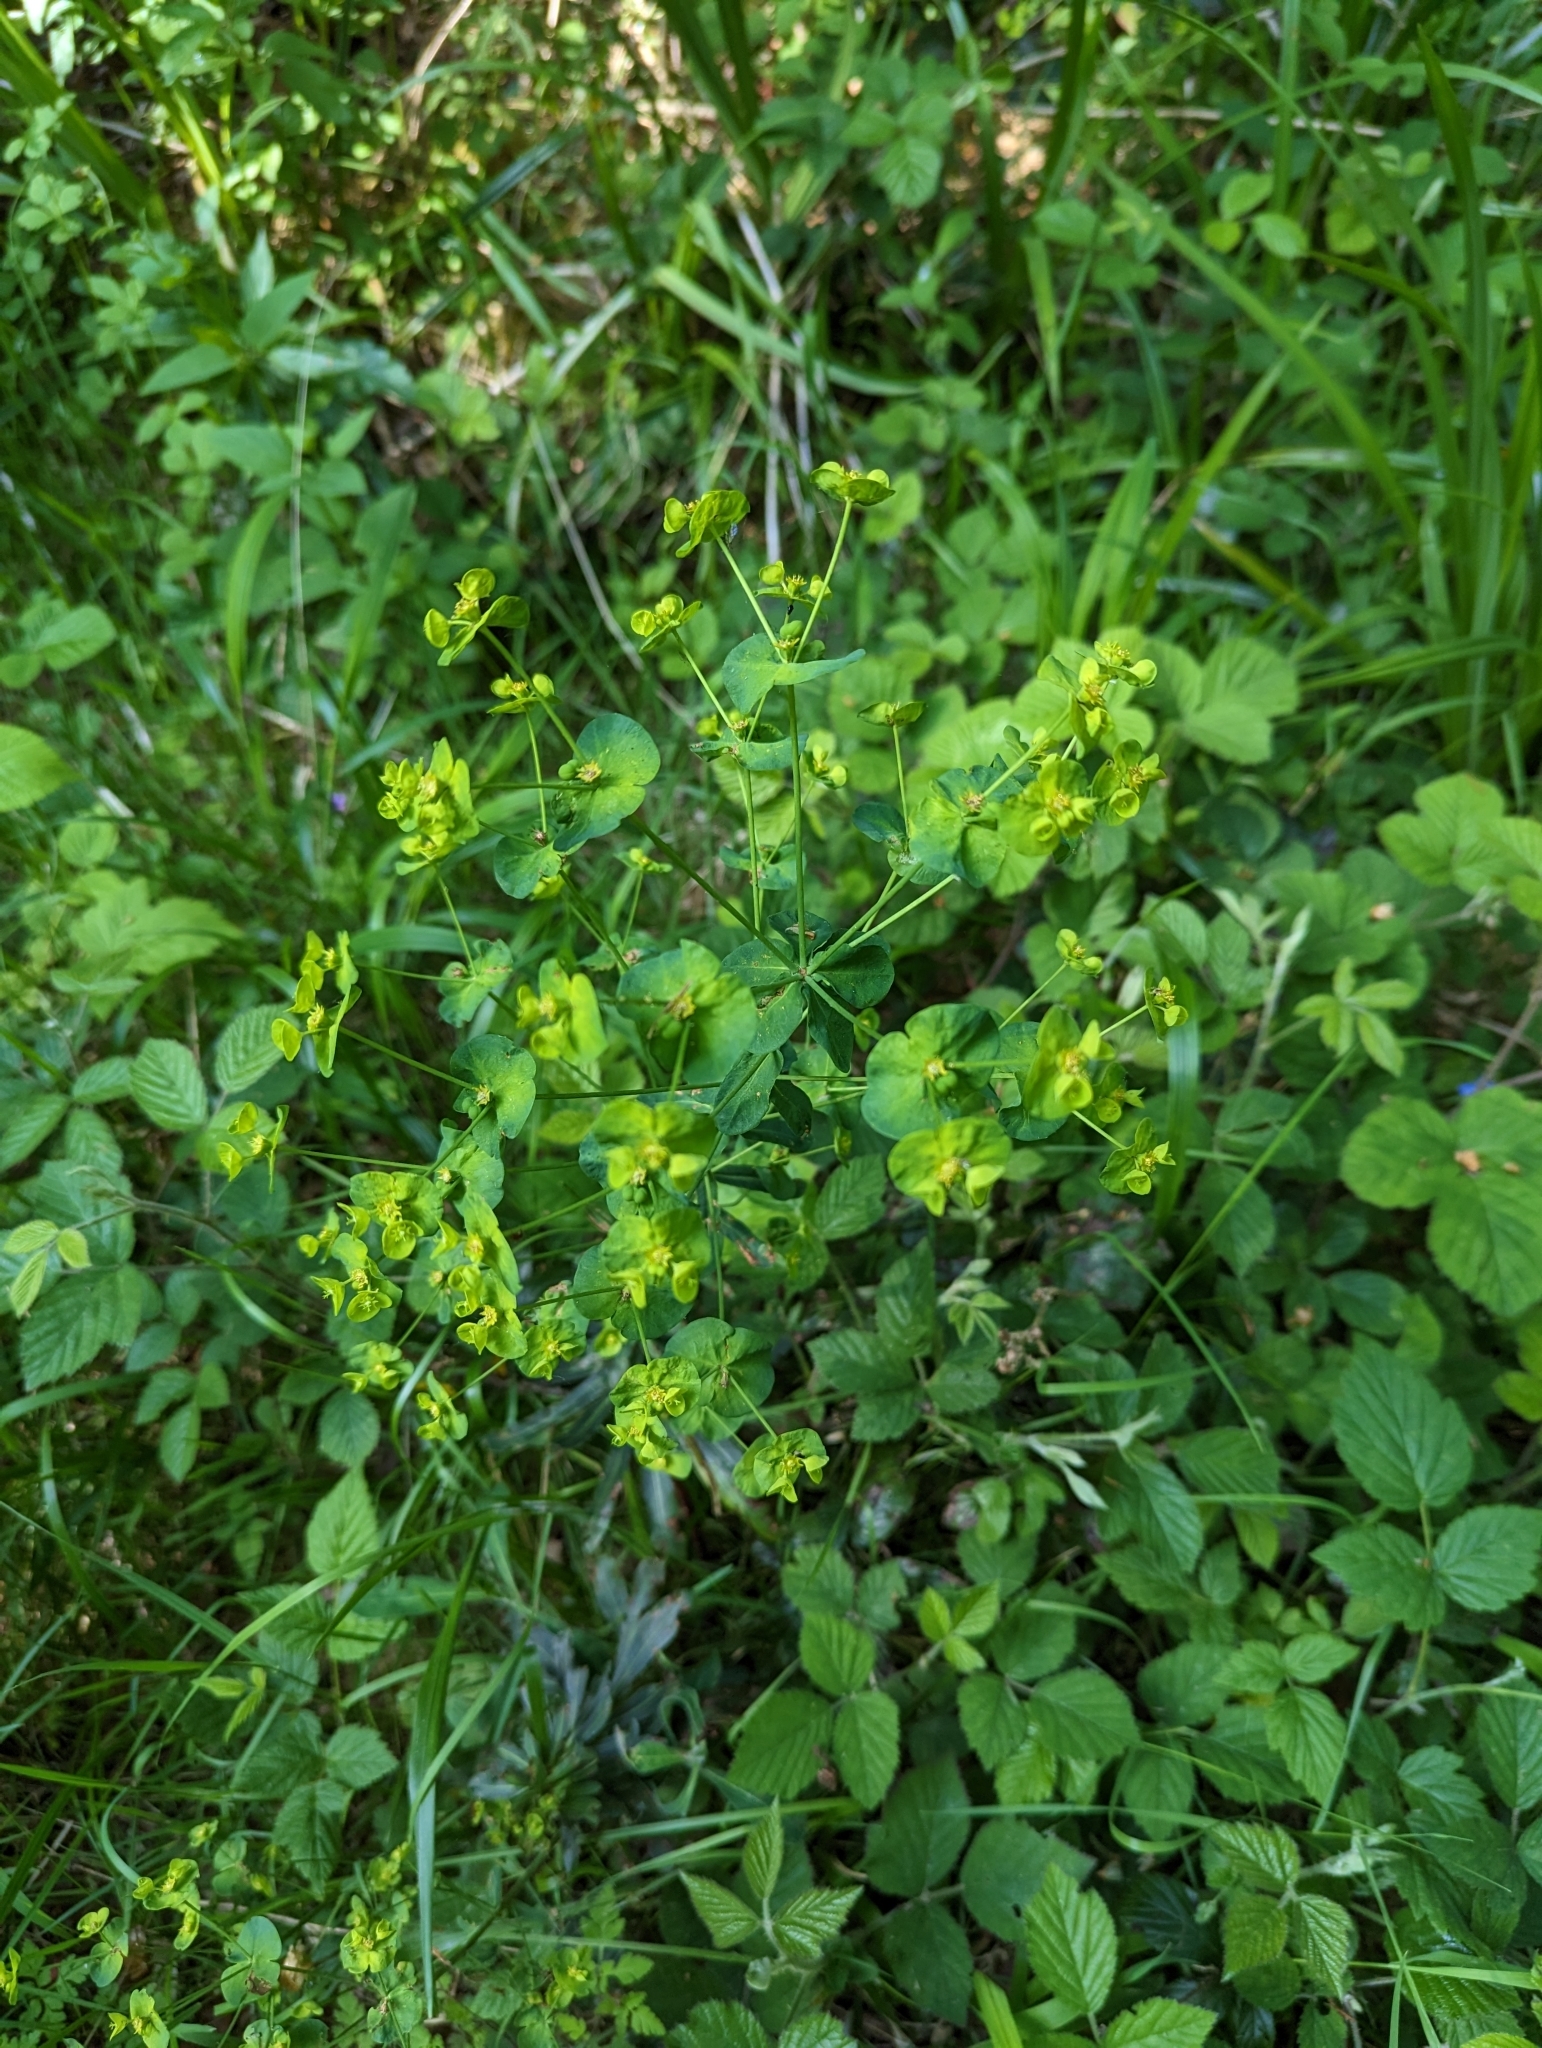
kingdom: Plantae
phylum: Tracheophyta
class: Magnoliopsida
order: Malpighiales
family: Euphorbiaceae
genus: Euphorbia
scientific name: Euphorbia amygdaloides
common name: Wood spurge
